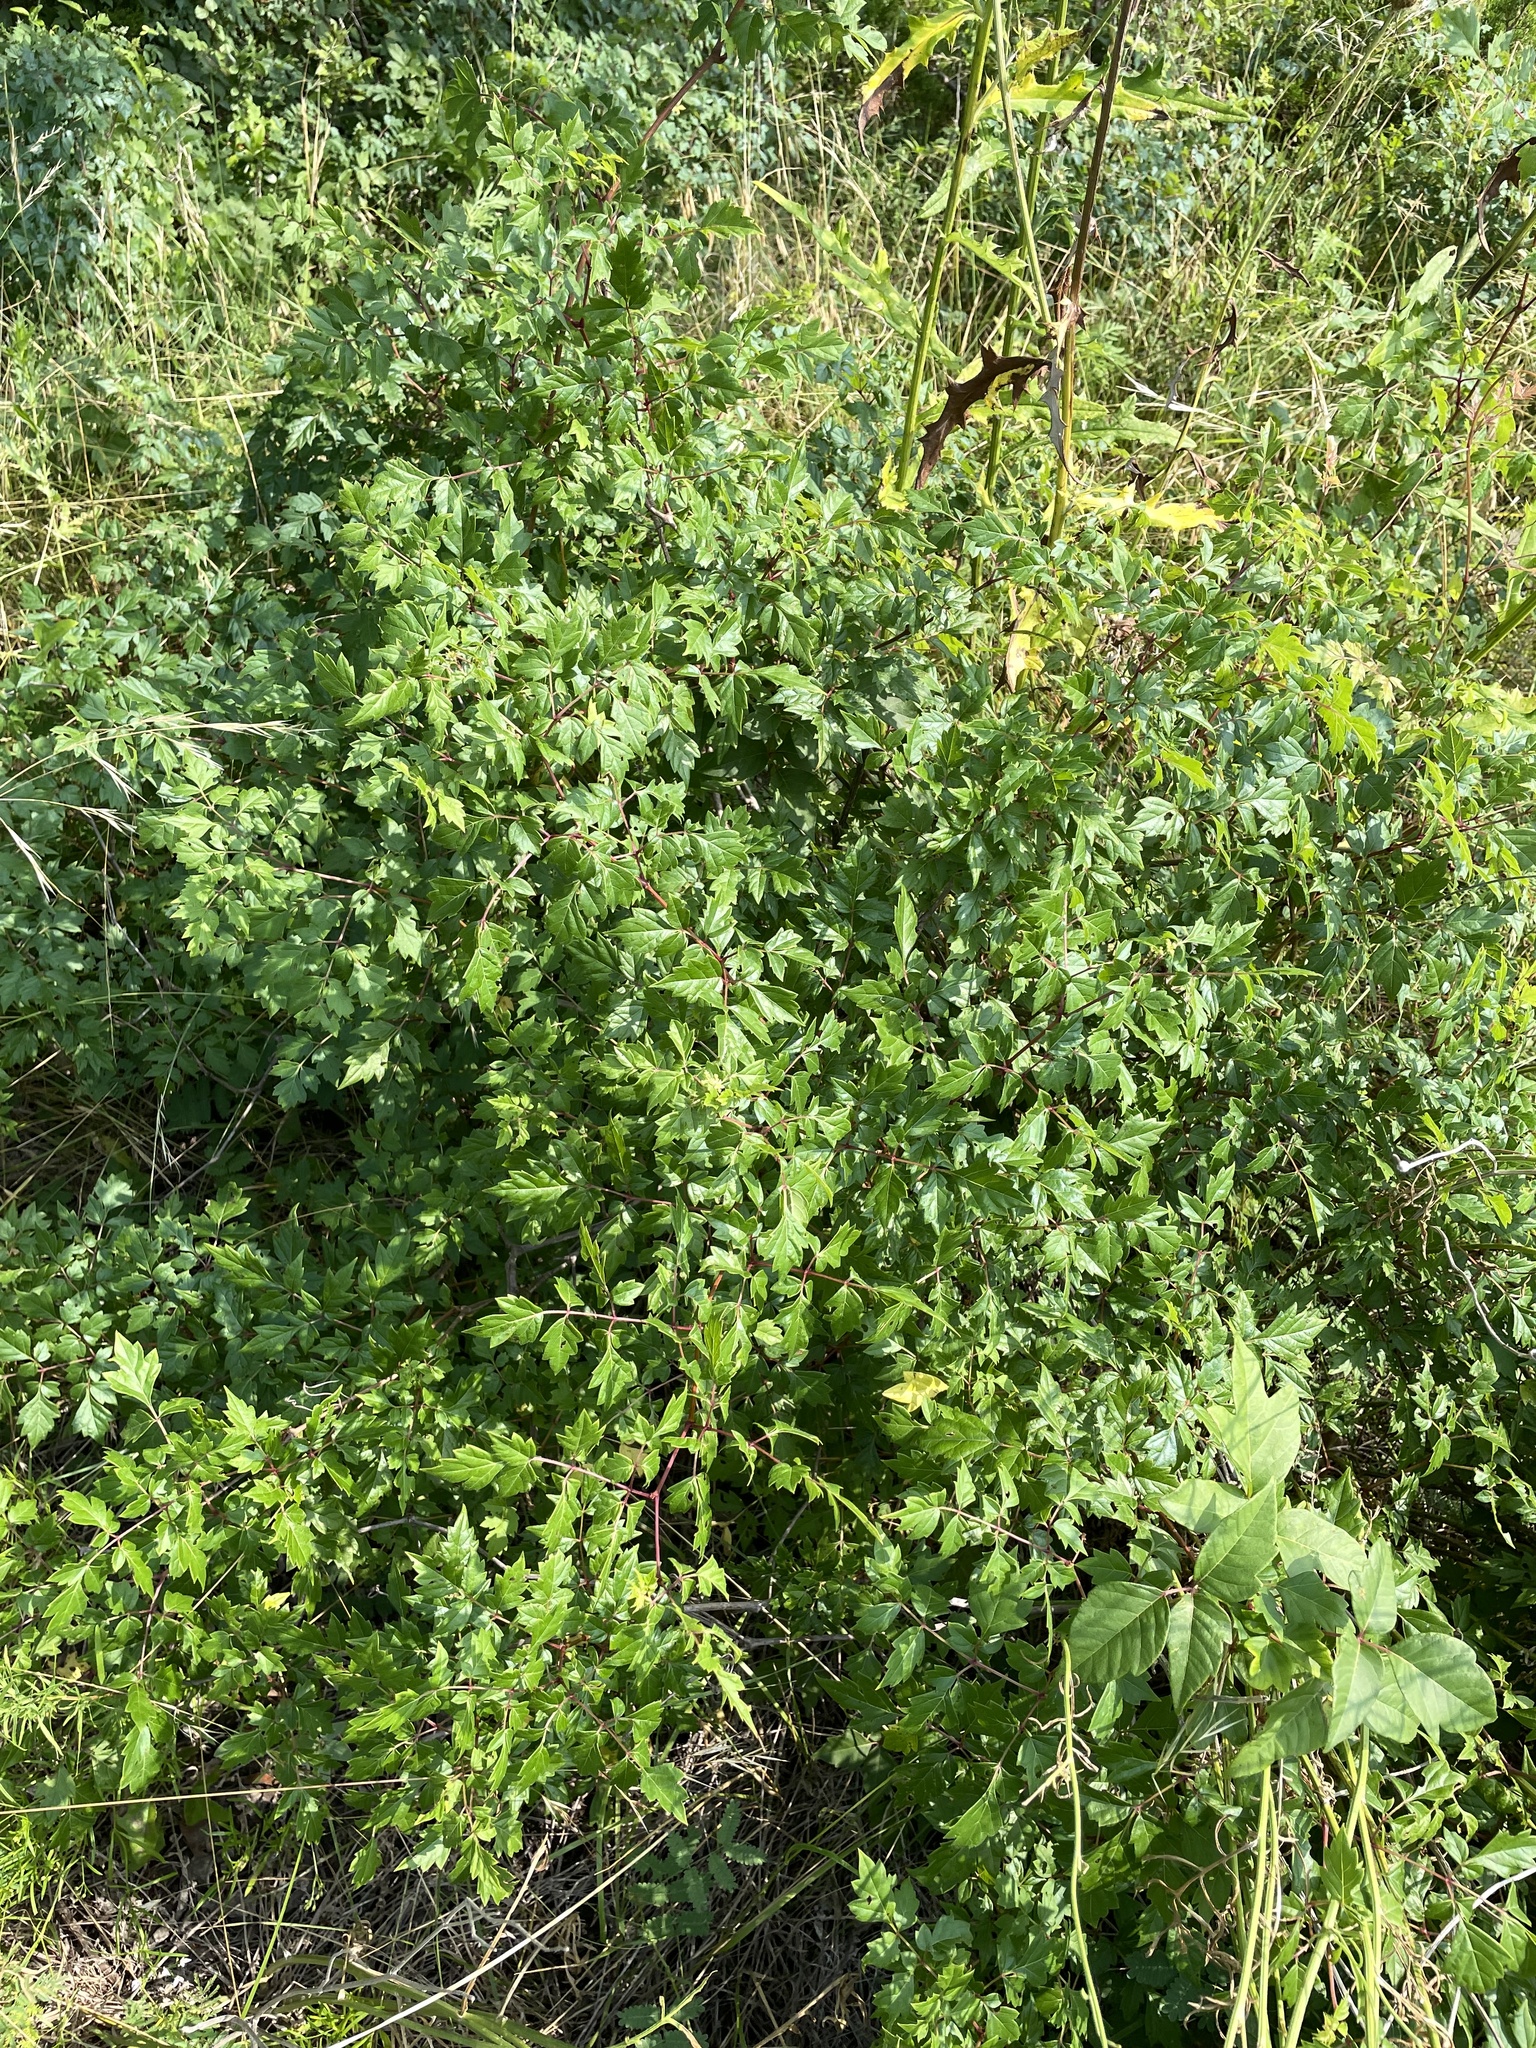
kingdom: Plantae
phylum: Tracheophyta
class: Magnoliopsida
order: Vitales
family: Vitaceae
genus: Nekemias
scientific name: Nekemias arborea
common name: Peppervine
